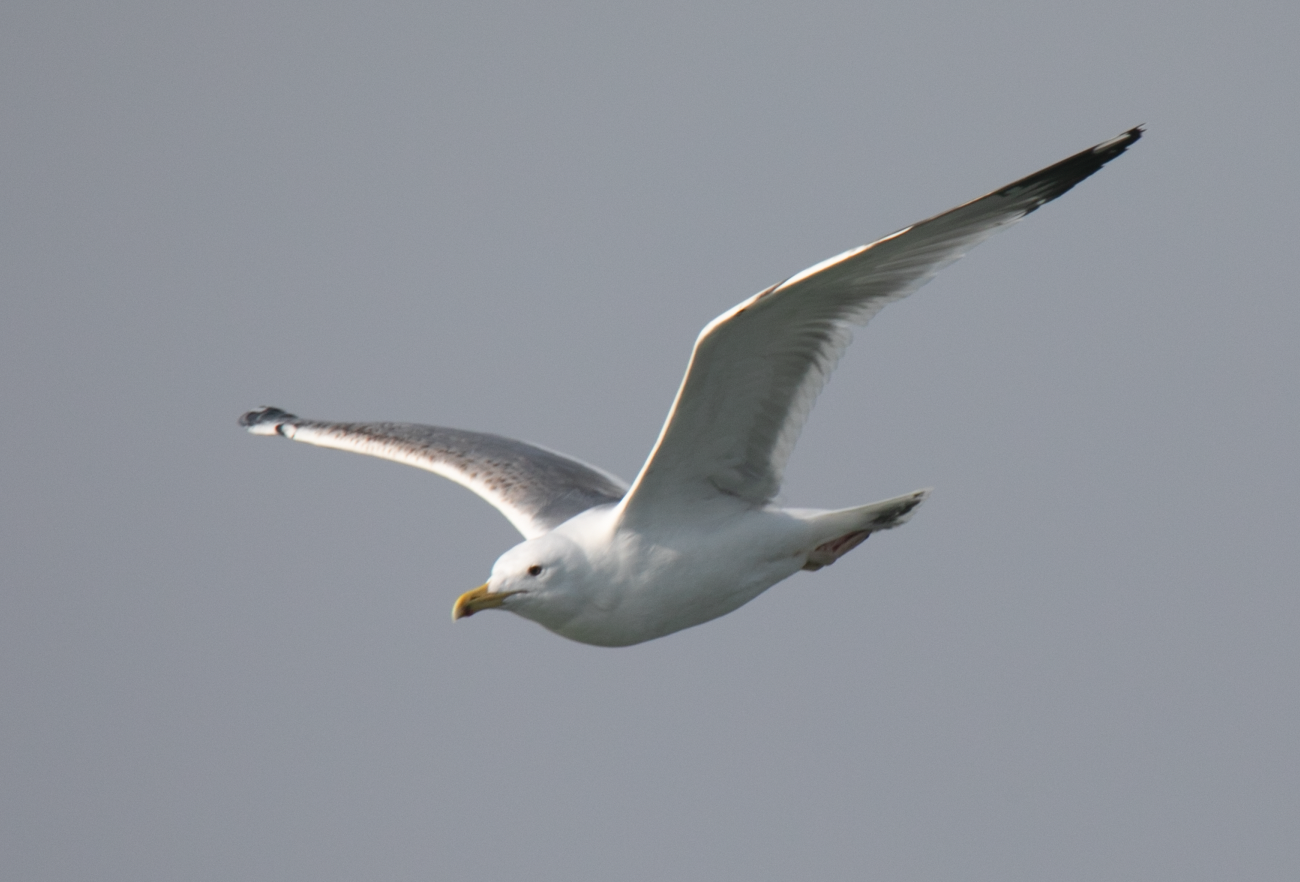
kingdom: Animalia
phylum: Chordata
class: Aves
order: Charadriiformes
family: Laridae
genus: Larus
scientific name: Larus michahellis
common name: Yellow-legged gull
